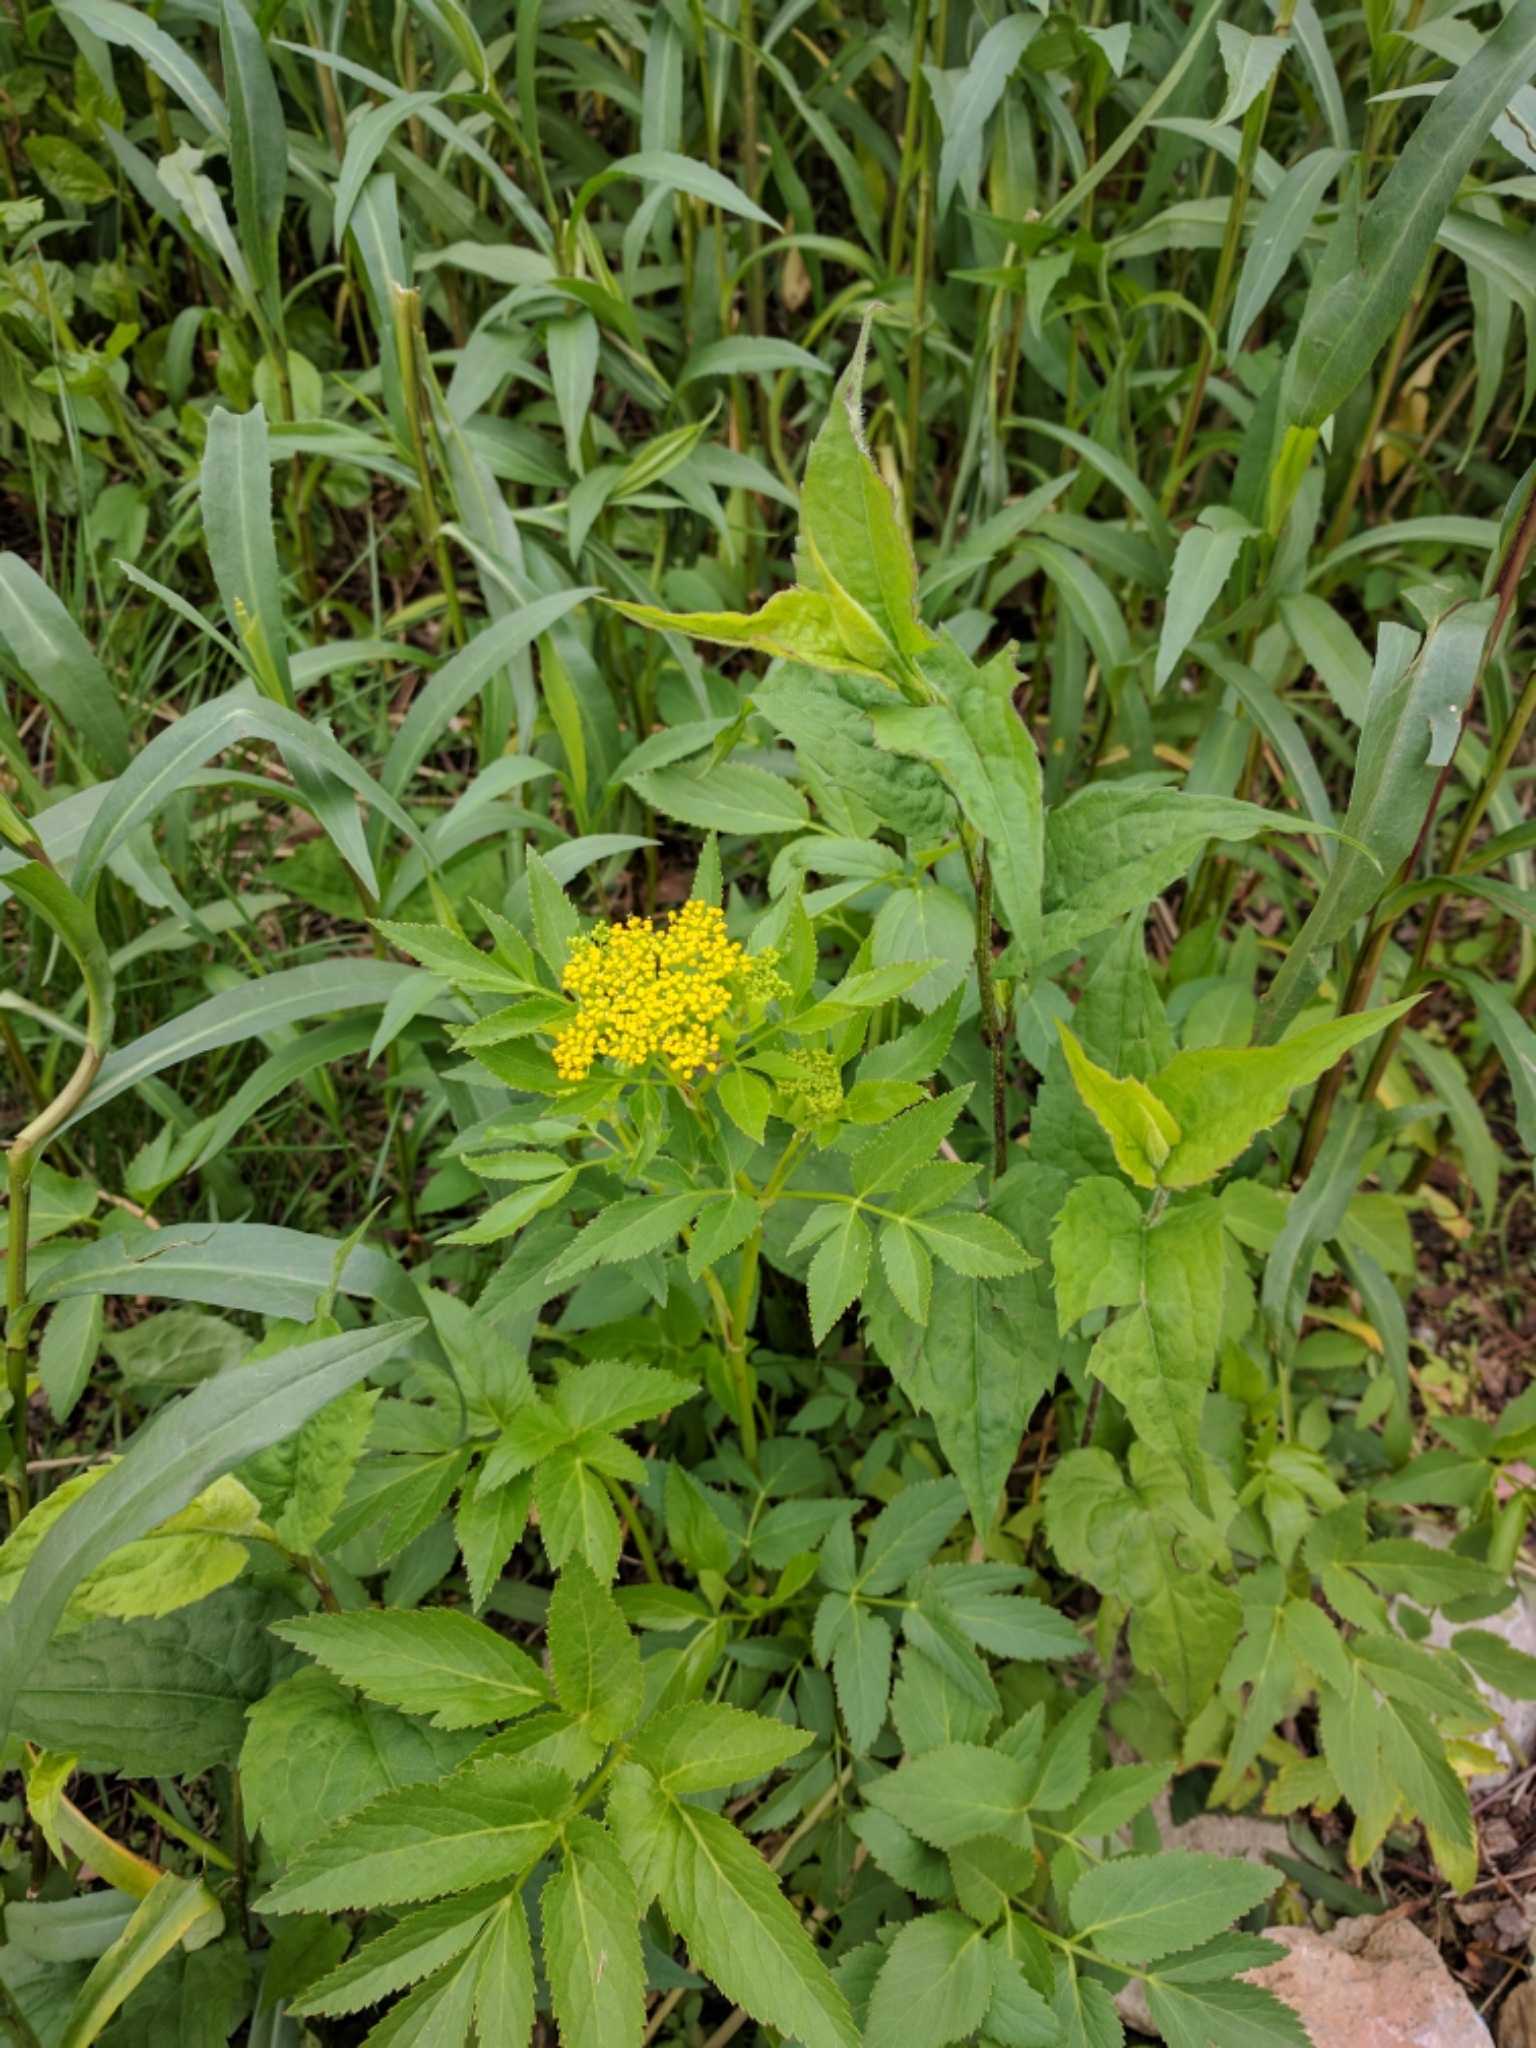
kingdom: Plantae
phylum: Tracheophyta
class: Magnoliopsida
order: Apiales
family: Apiaceae
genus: Zizia
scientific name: Zizia aurea
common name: Golden alexanders
